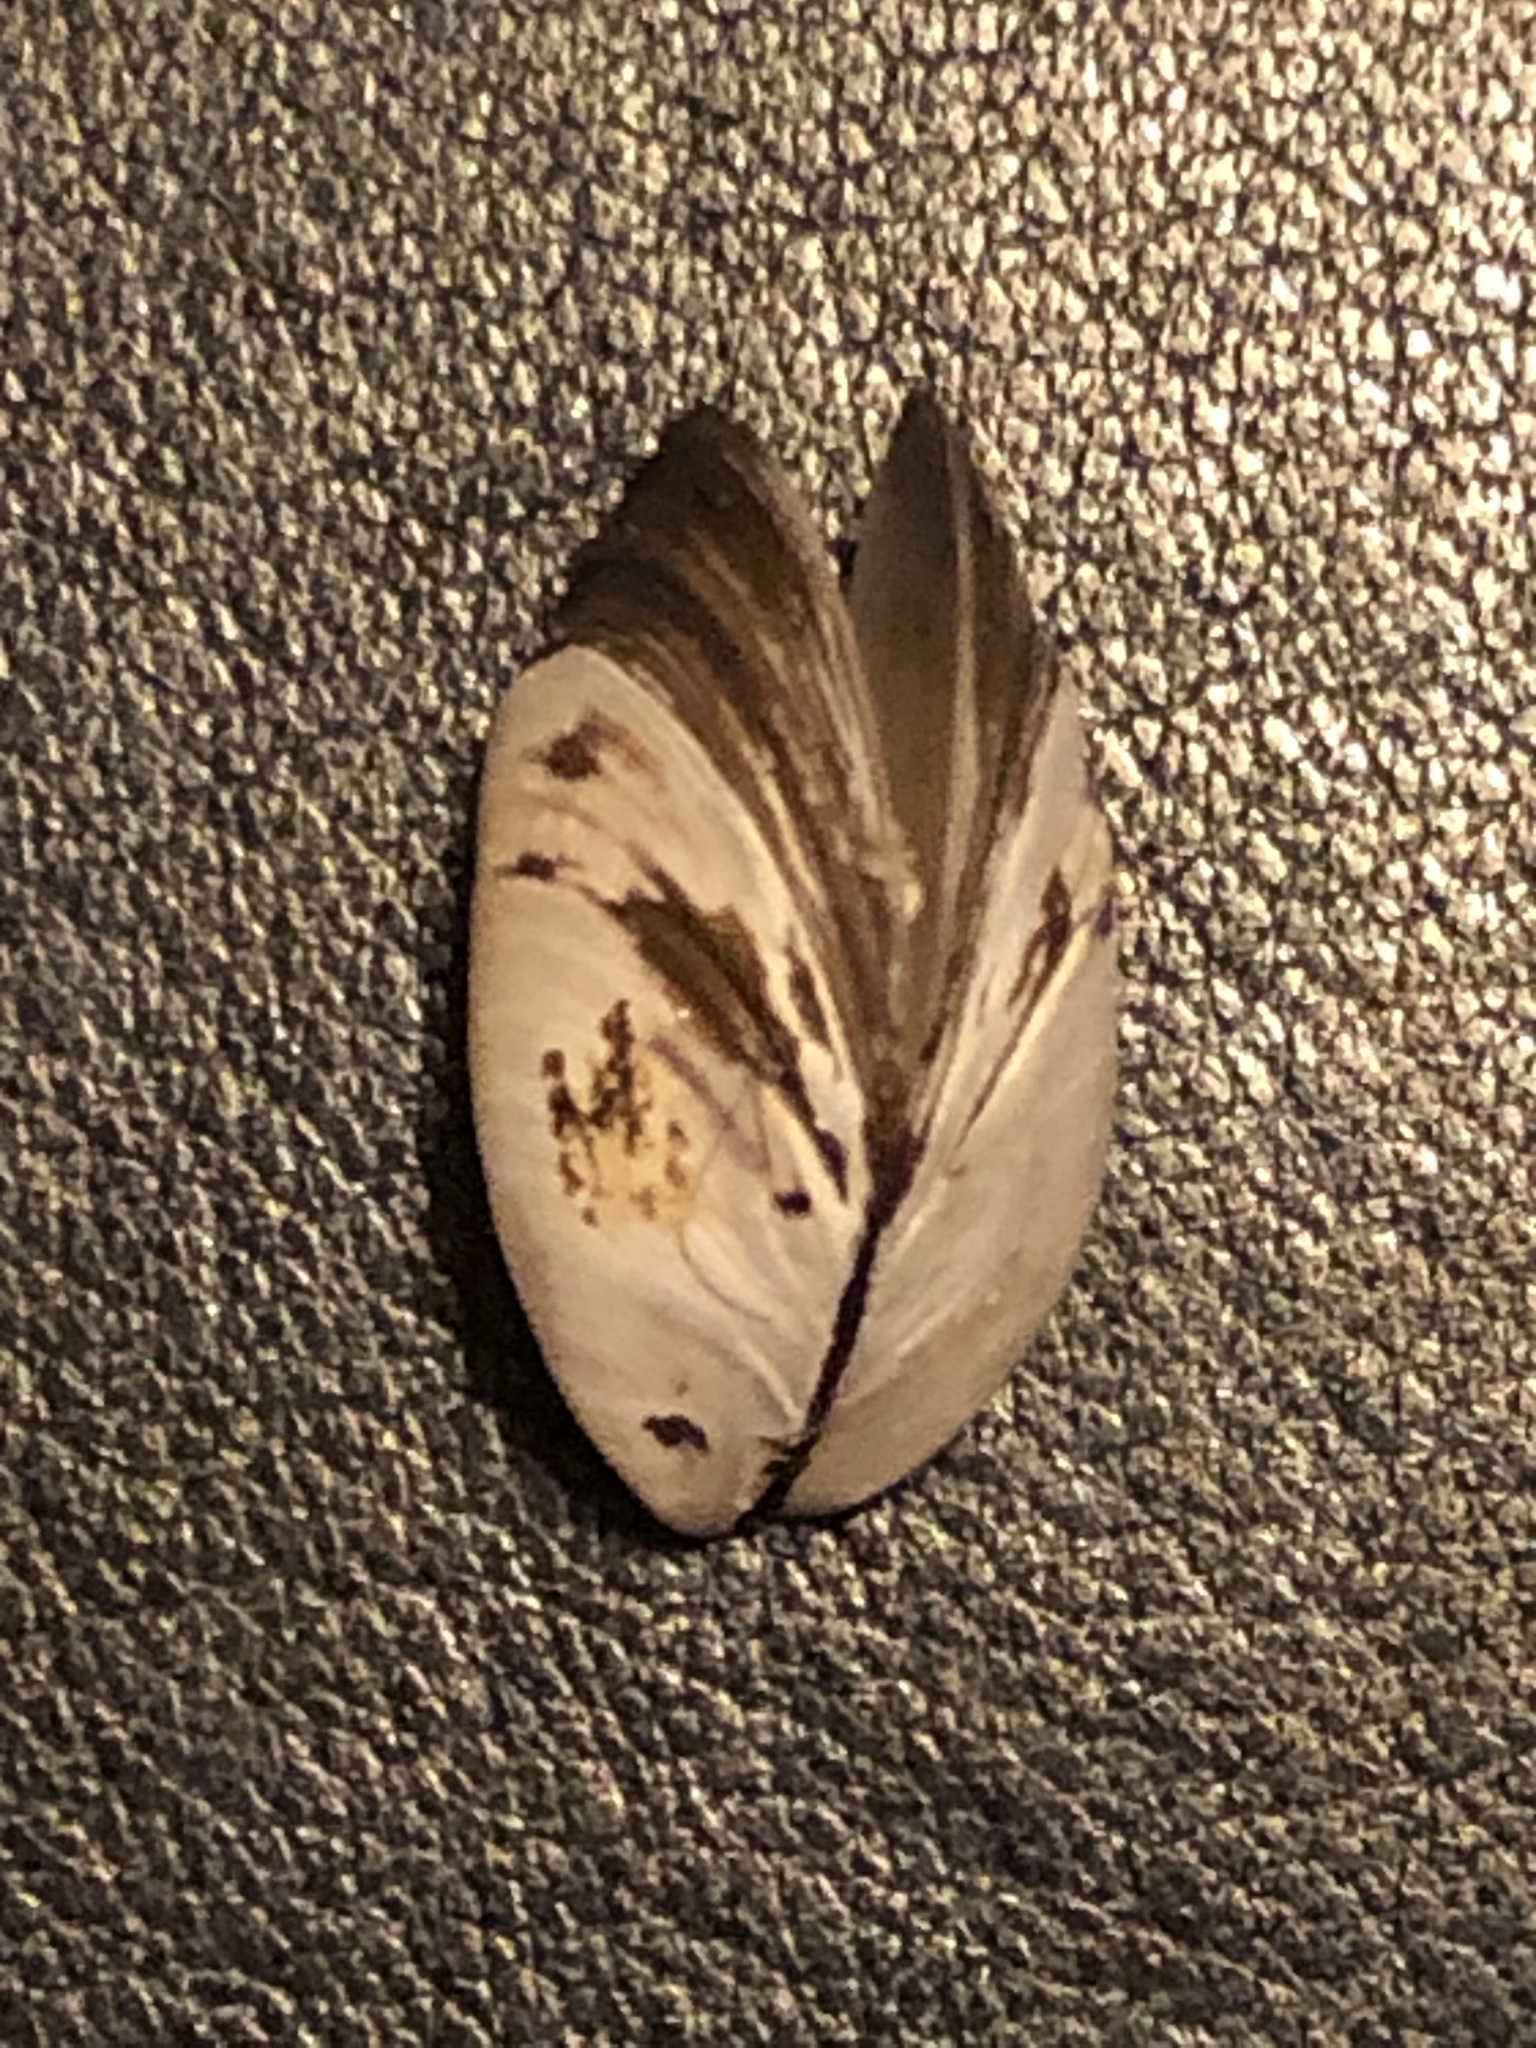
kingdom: Animalia
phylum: Mollusca
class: Bivalvia
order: Myida
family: Dreissenidae
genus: Dreissena
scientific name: Dreissena polymorpha
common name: Zebra mussel
